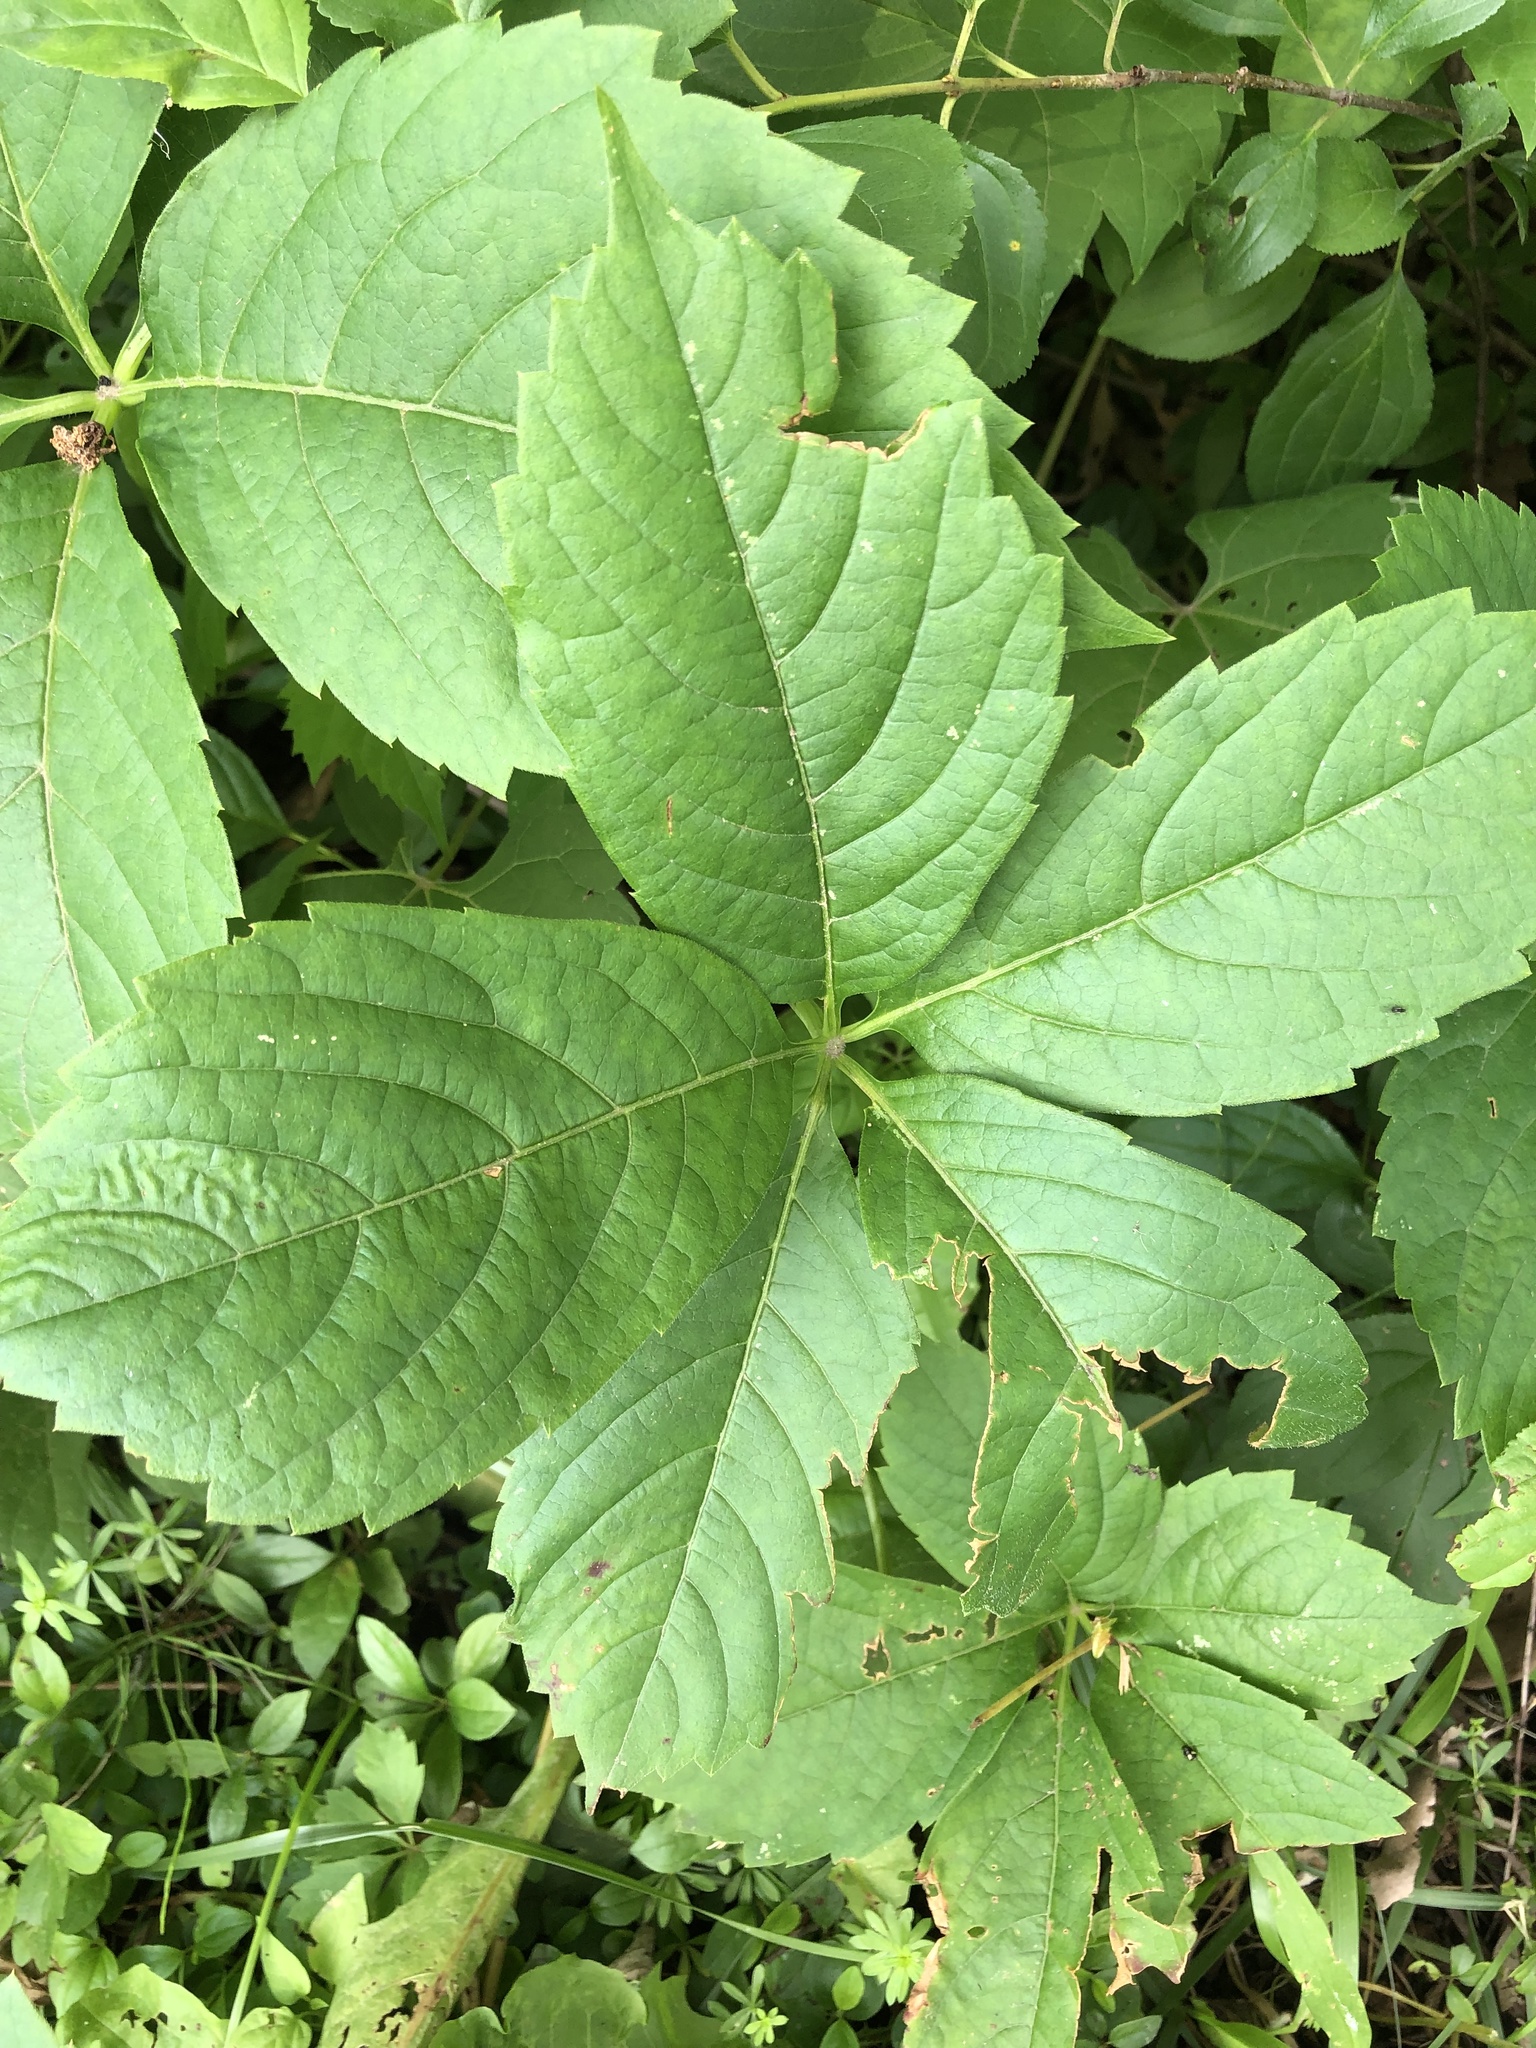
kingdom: Plantae
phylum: Tracheophyta
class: Magnoliopsida
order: Vitales
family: Vitaceae
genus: Parthenocissus
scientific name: Parthenocissus quinquefolia
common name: Virginia-creeper
